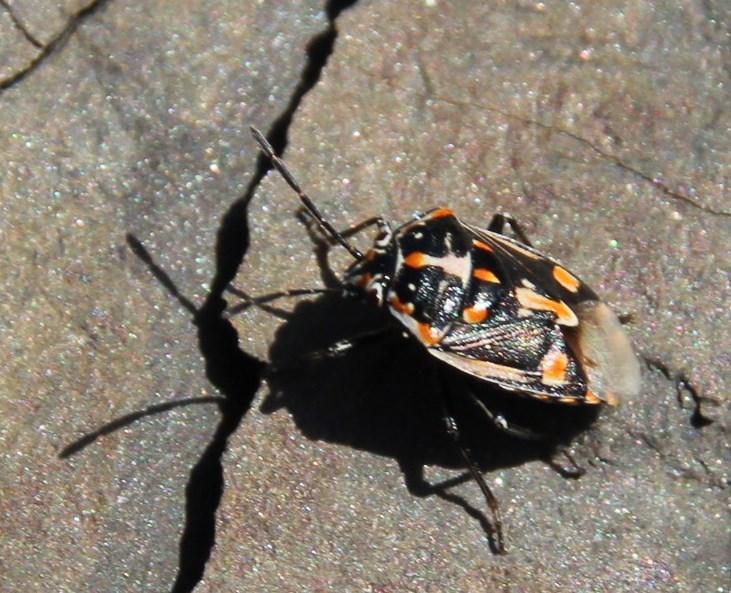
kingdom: Animalia
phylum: Arthropoda
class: Insecta
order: Hemiptera
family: Pentatomidae
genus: Bagrada
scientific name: Bagrada hilaris
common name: Bagrada bug
